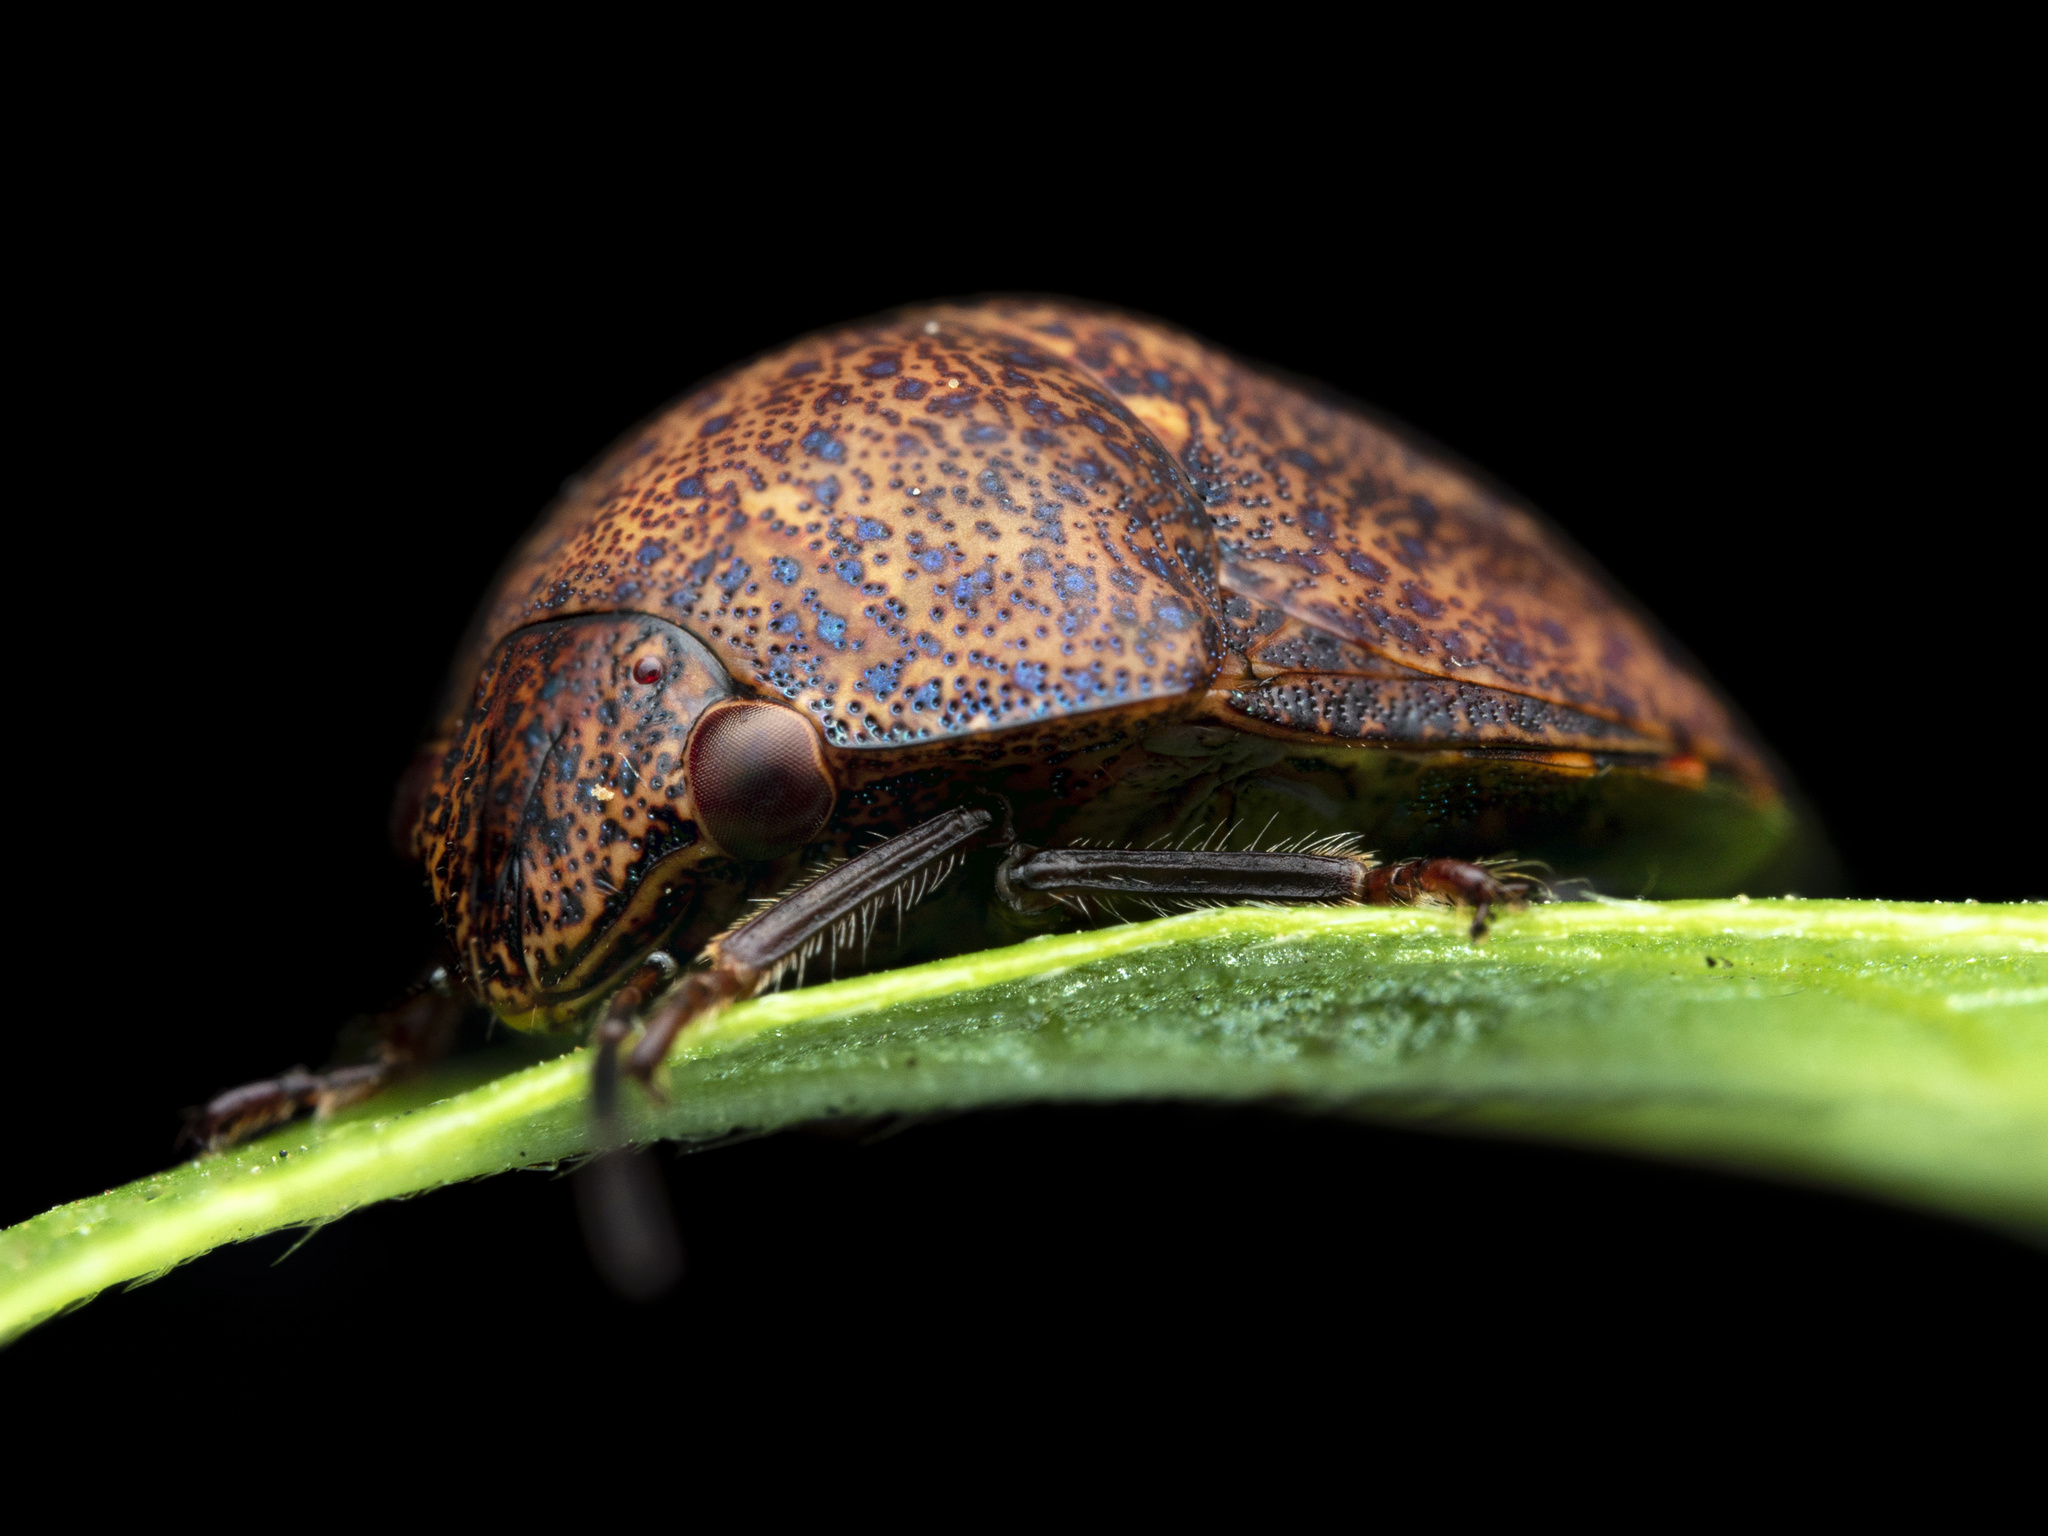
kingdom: Animalia
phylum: Arthropoda
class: Insecta
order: Hemiptera
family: Scutelleridae
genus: Hyperoncus
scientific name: Hyperoncus
